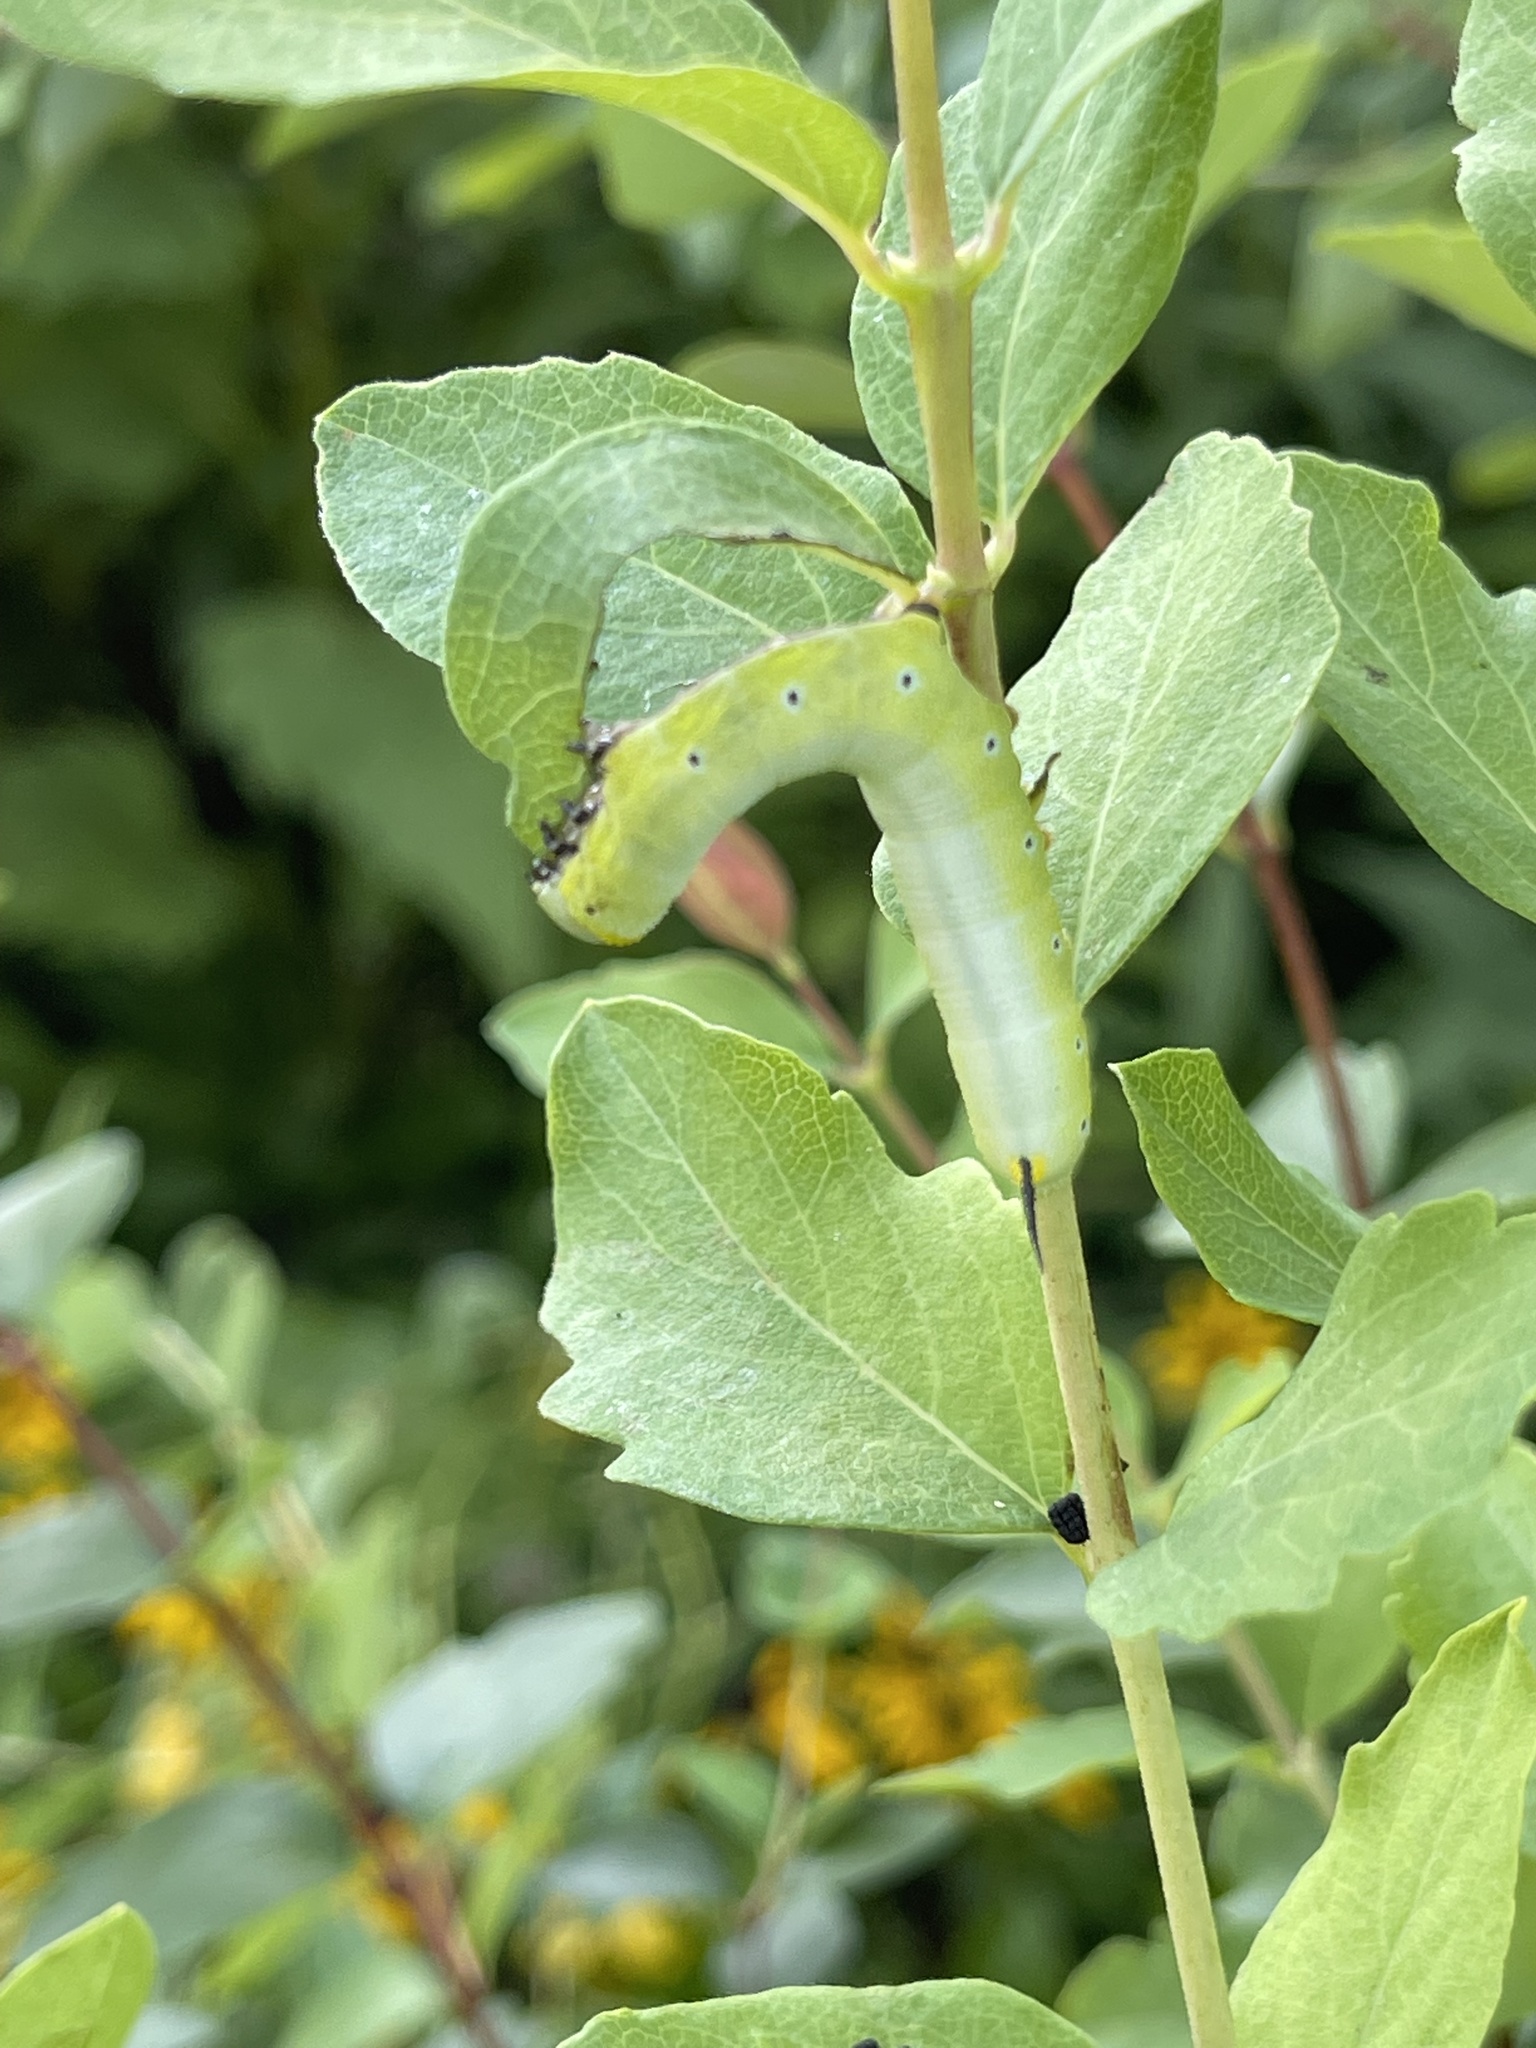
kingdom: Animalia
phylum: Arthropoda
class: Insecta
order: Lepidoptera
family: Sphingidae
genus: Hemaris
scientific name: Hemaris diffinis
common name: Bumblebee moth
